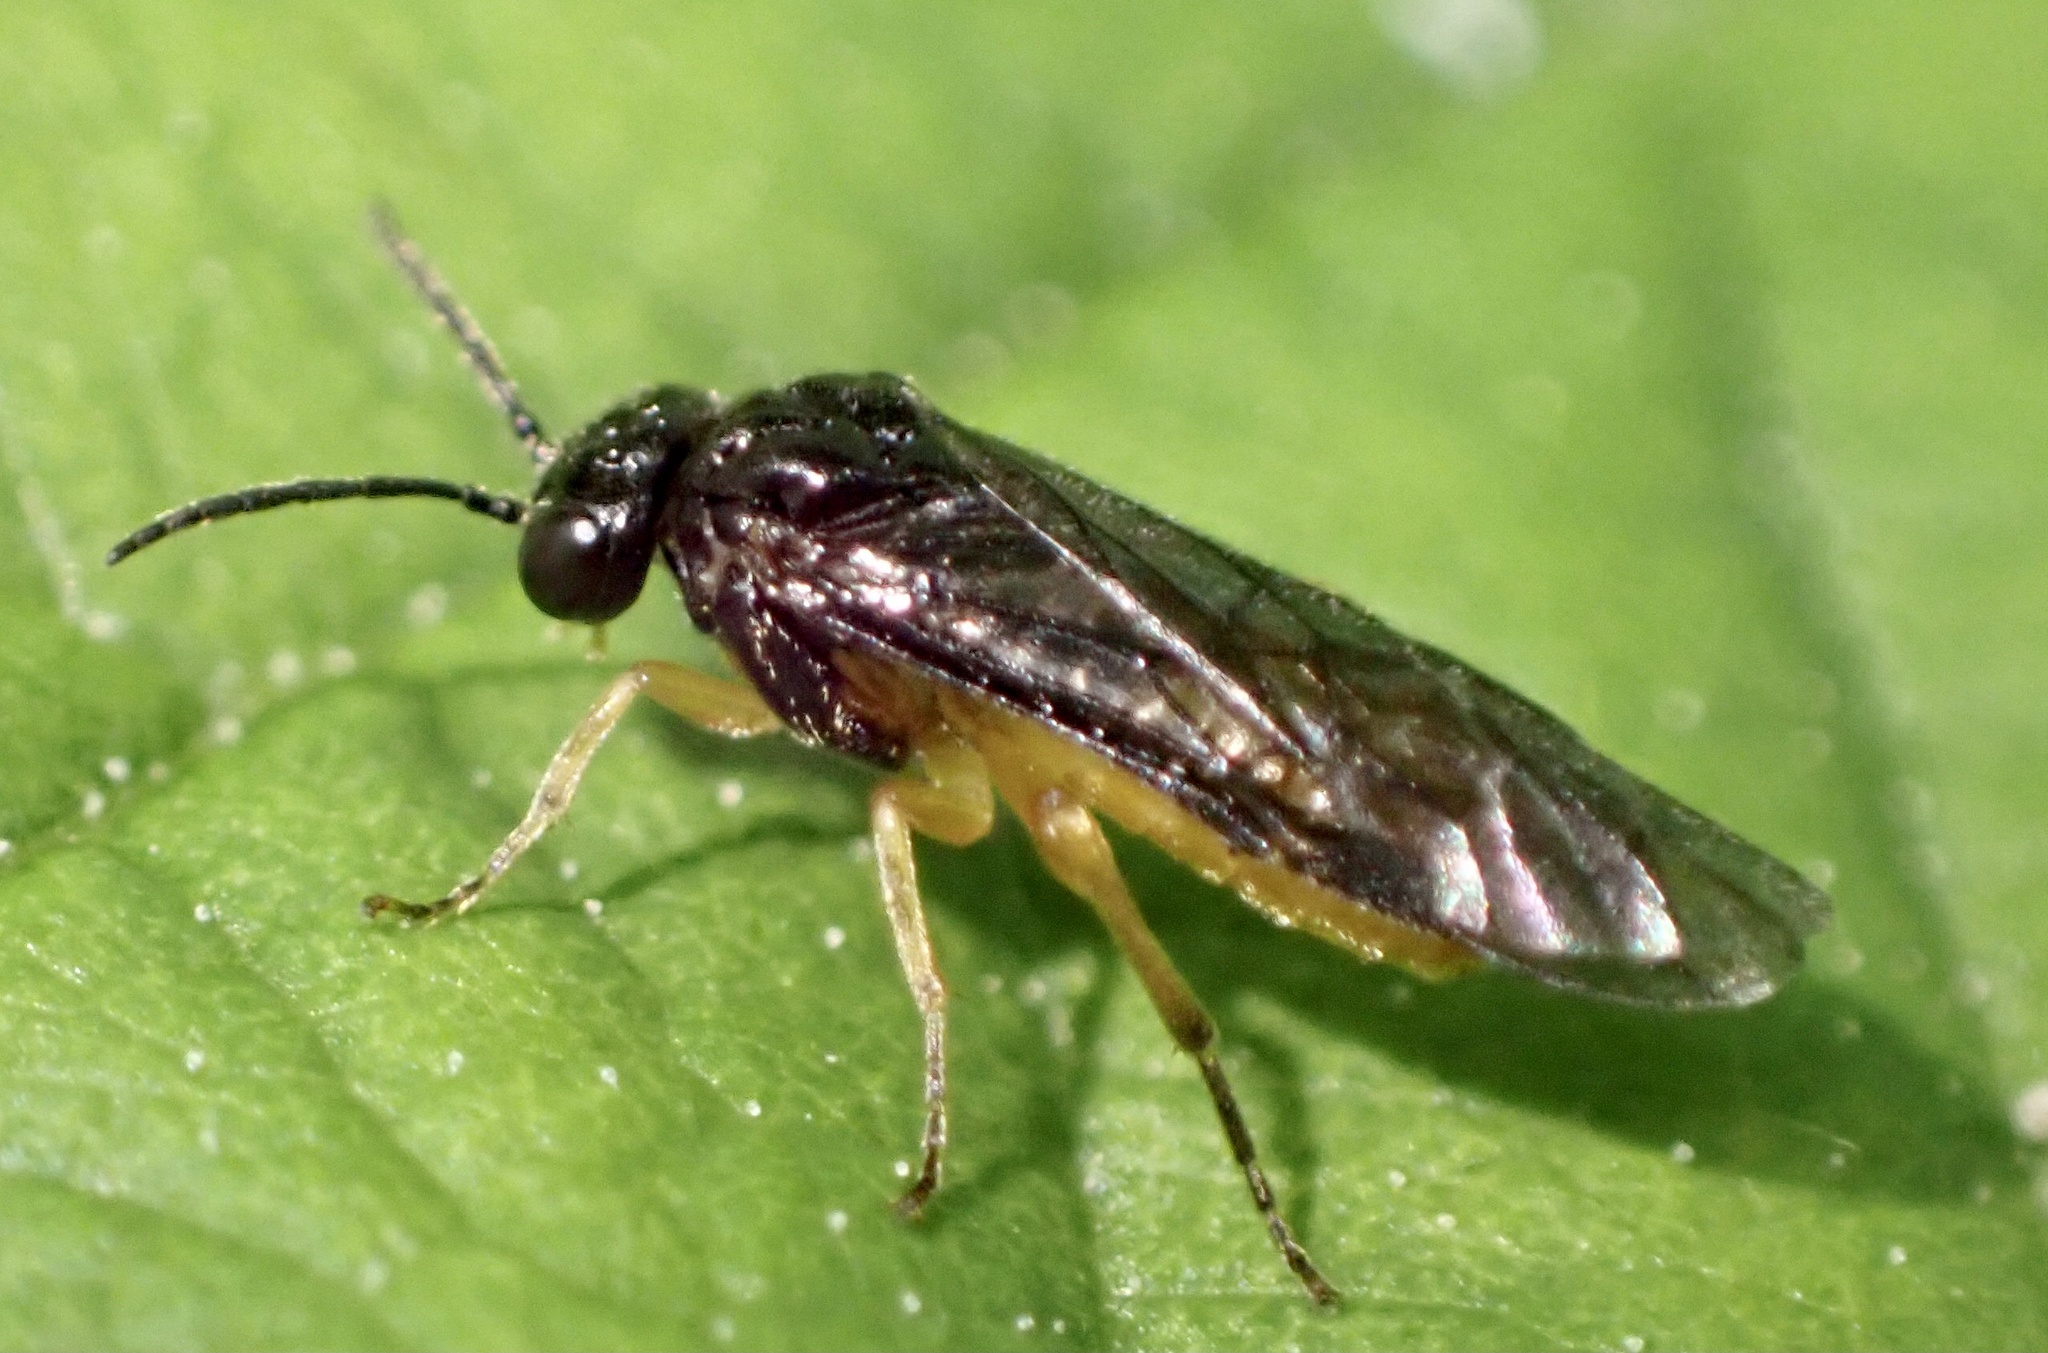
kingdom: Animalia
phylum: Arthropoda
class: Insecta
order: Hymenoptera
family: Tenthredinidae
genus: Halidamia
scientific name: Halidamia affinis
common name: Wasp
